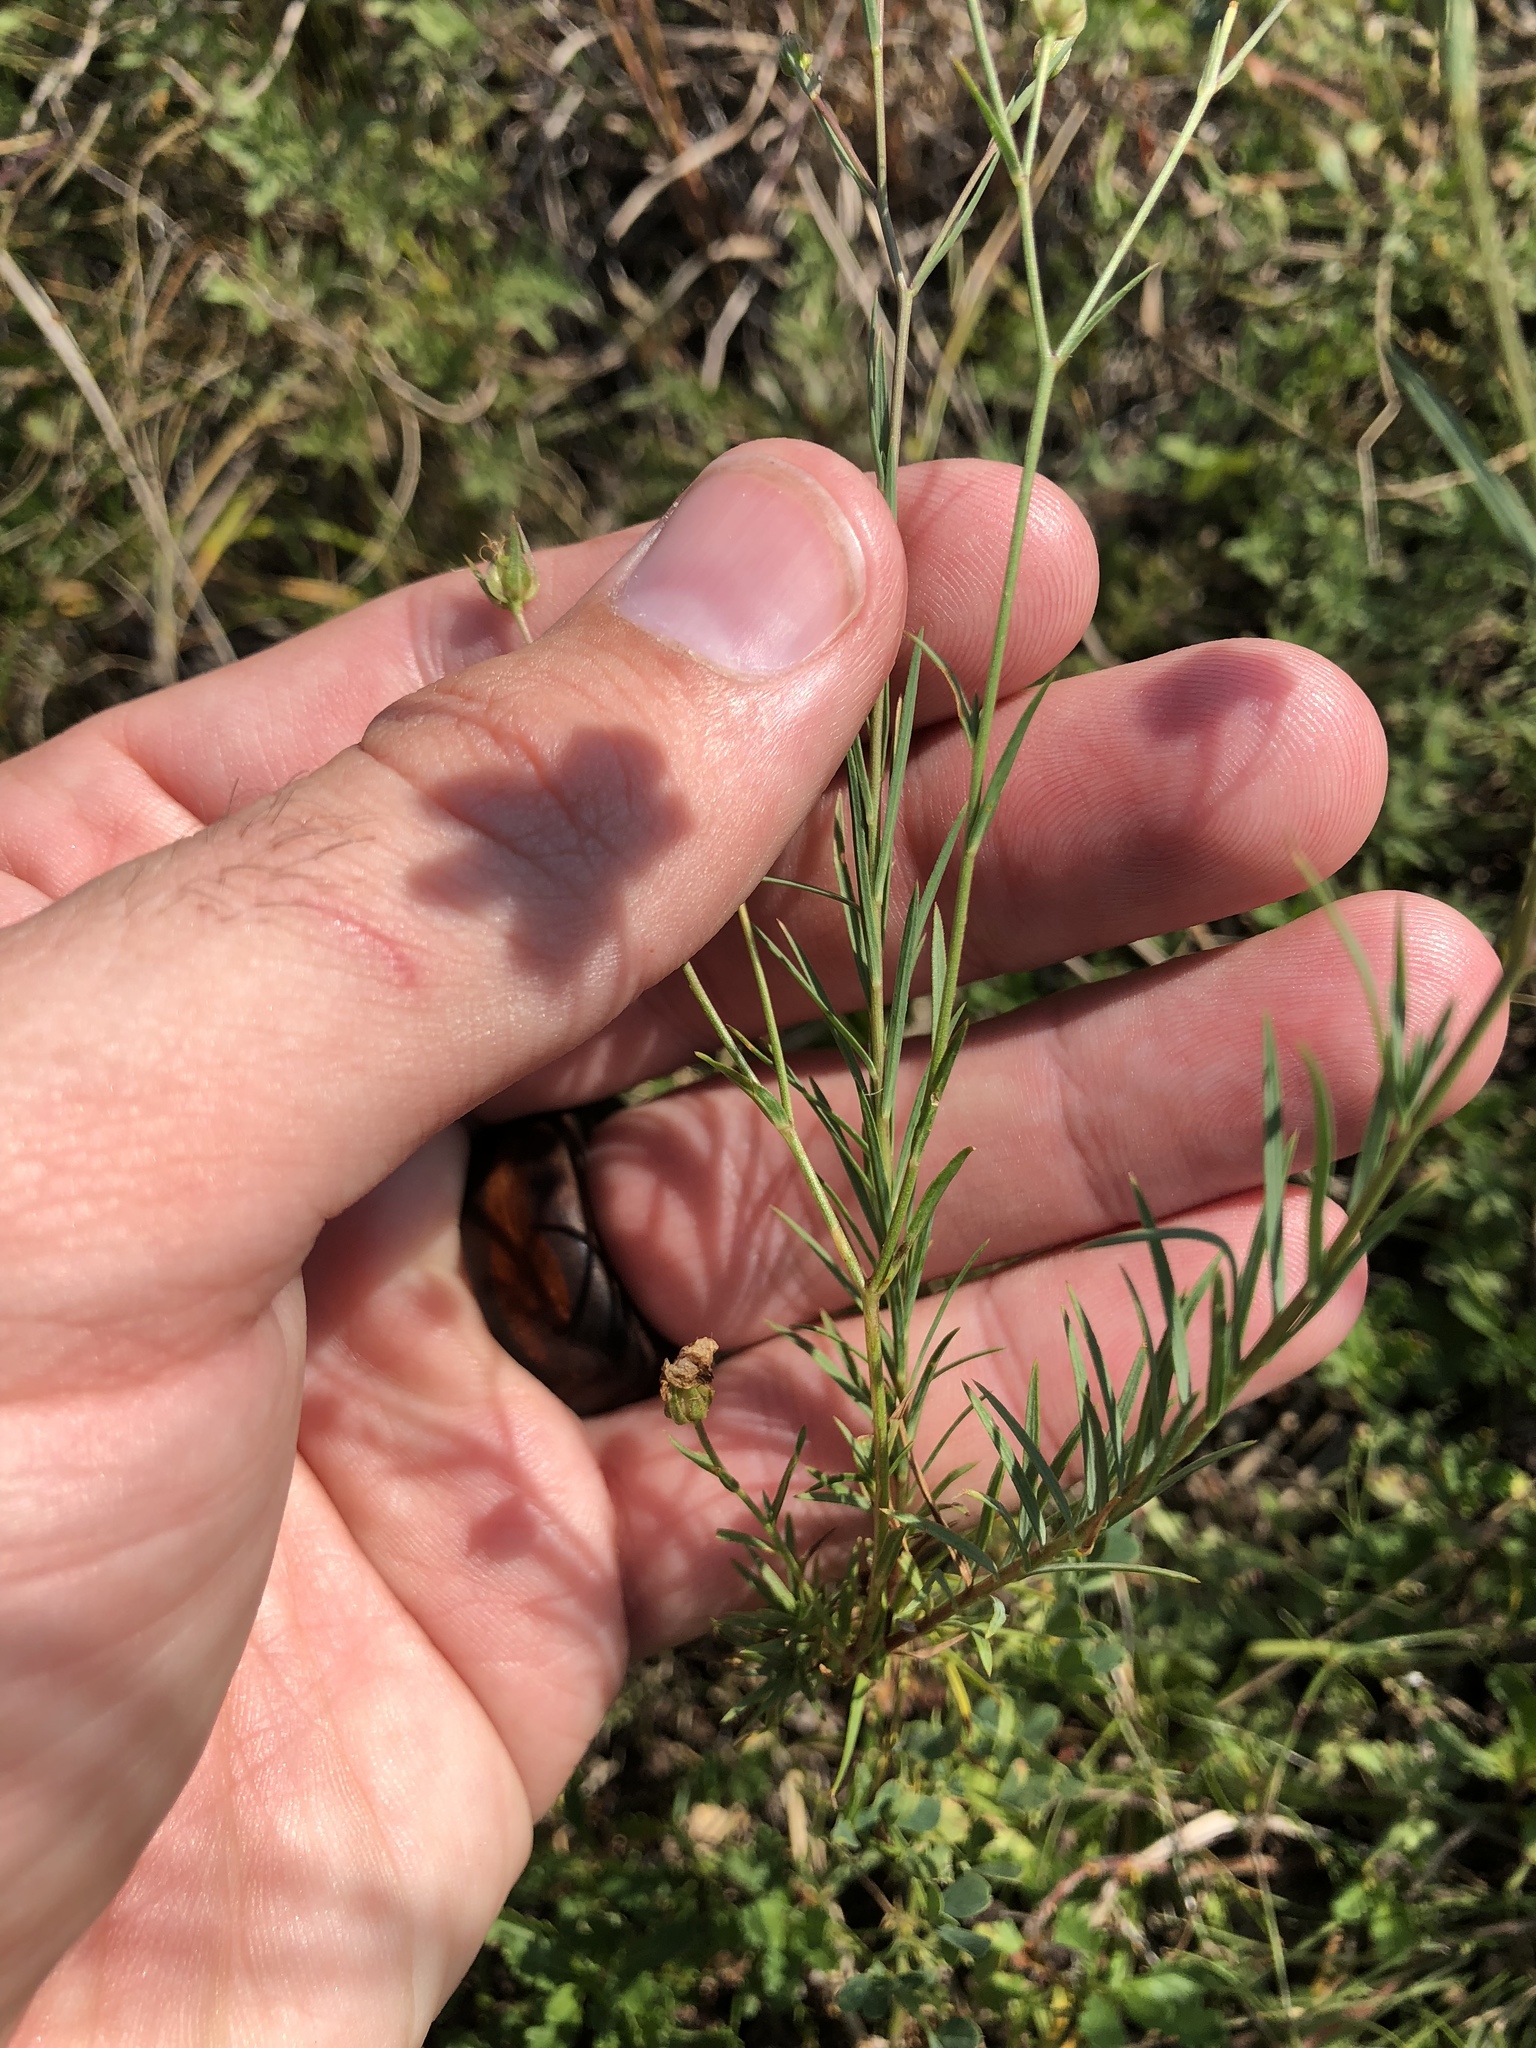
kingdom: Plantae
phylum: Tracheophyta
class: Magnoliopsida
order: Malpighiales
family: Linaceae
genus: Linum
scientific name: Linum tenuifolium
